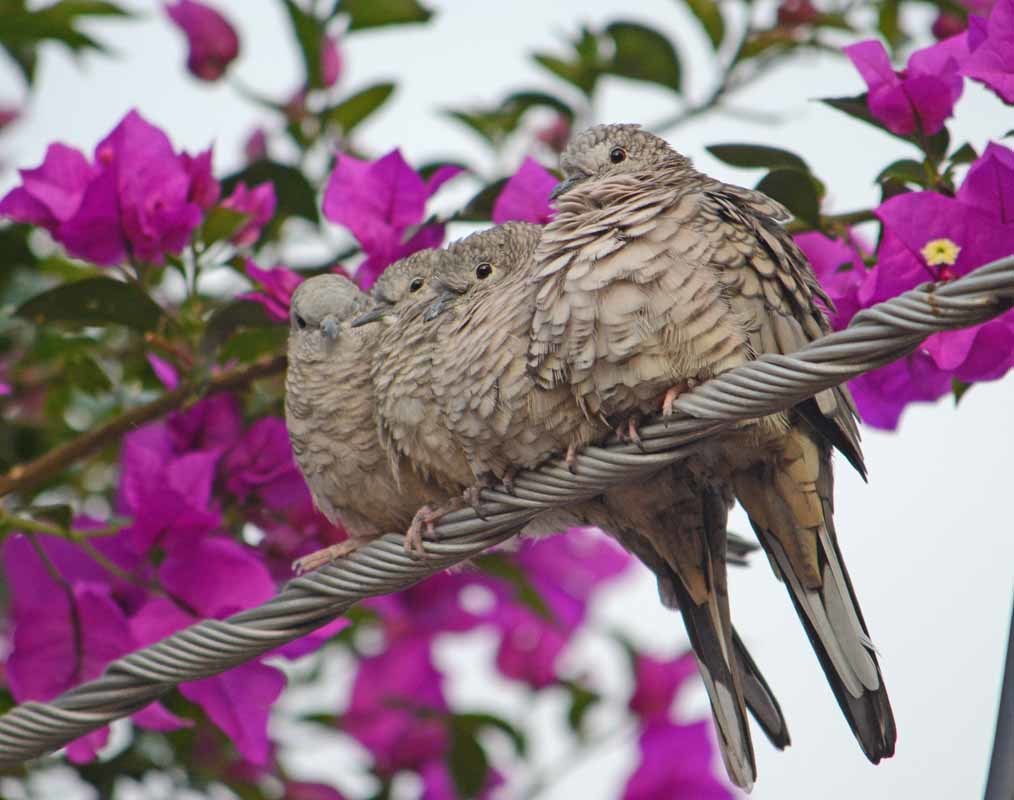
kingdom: Animalia
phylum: Chordata
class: Aves
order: Columbiformes
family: Columbidae
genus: Columbina
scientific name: Columbina inca
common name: Inca dove
